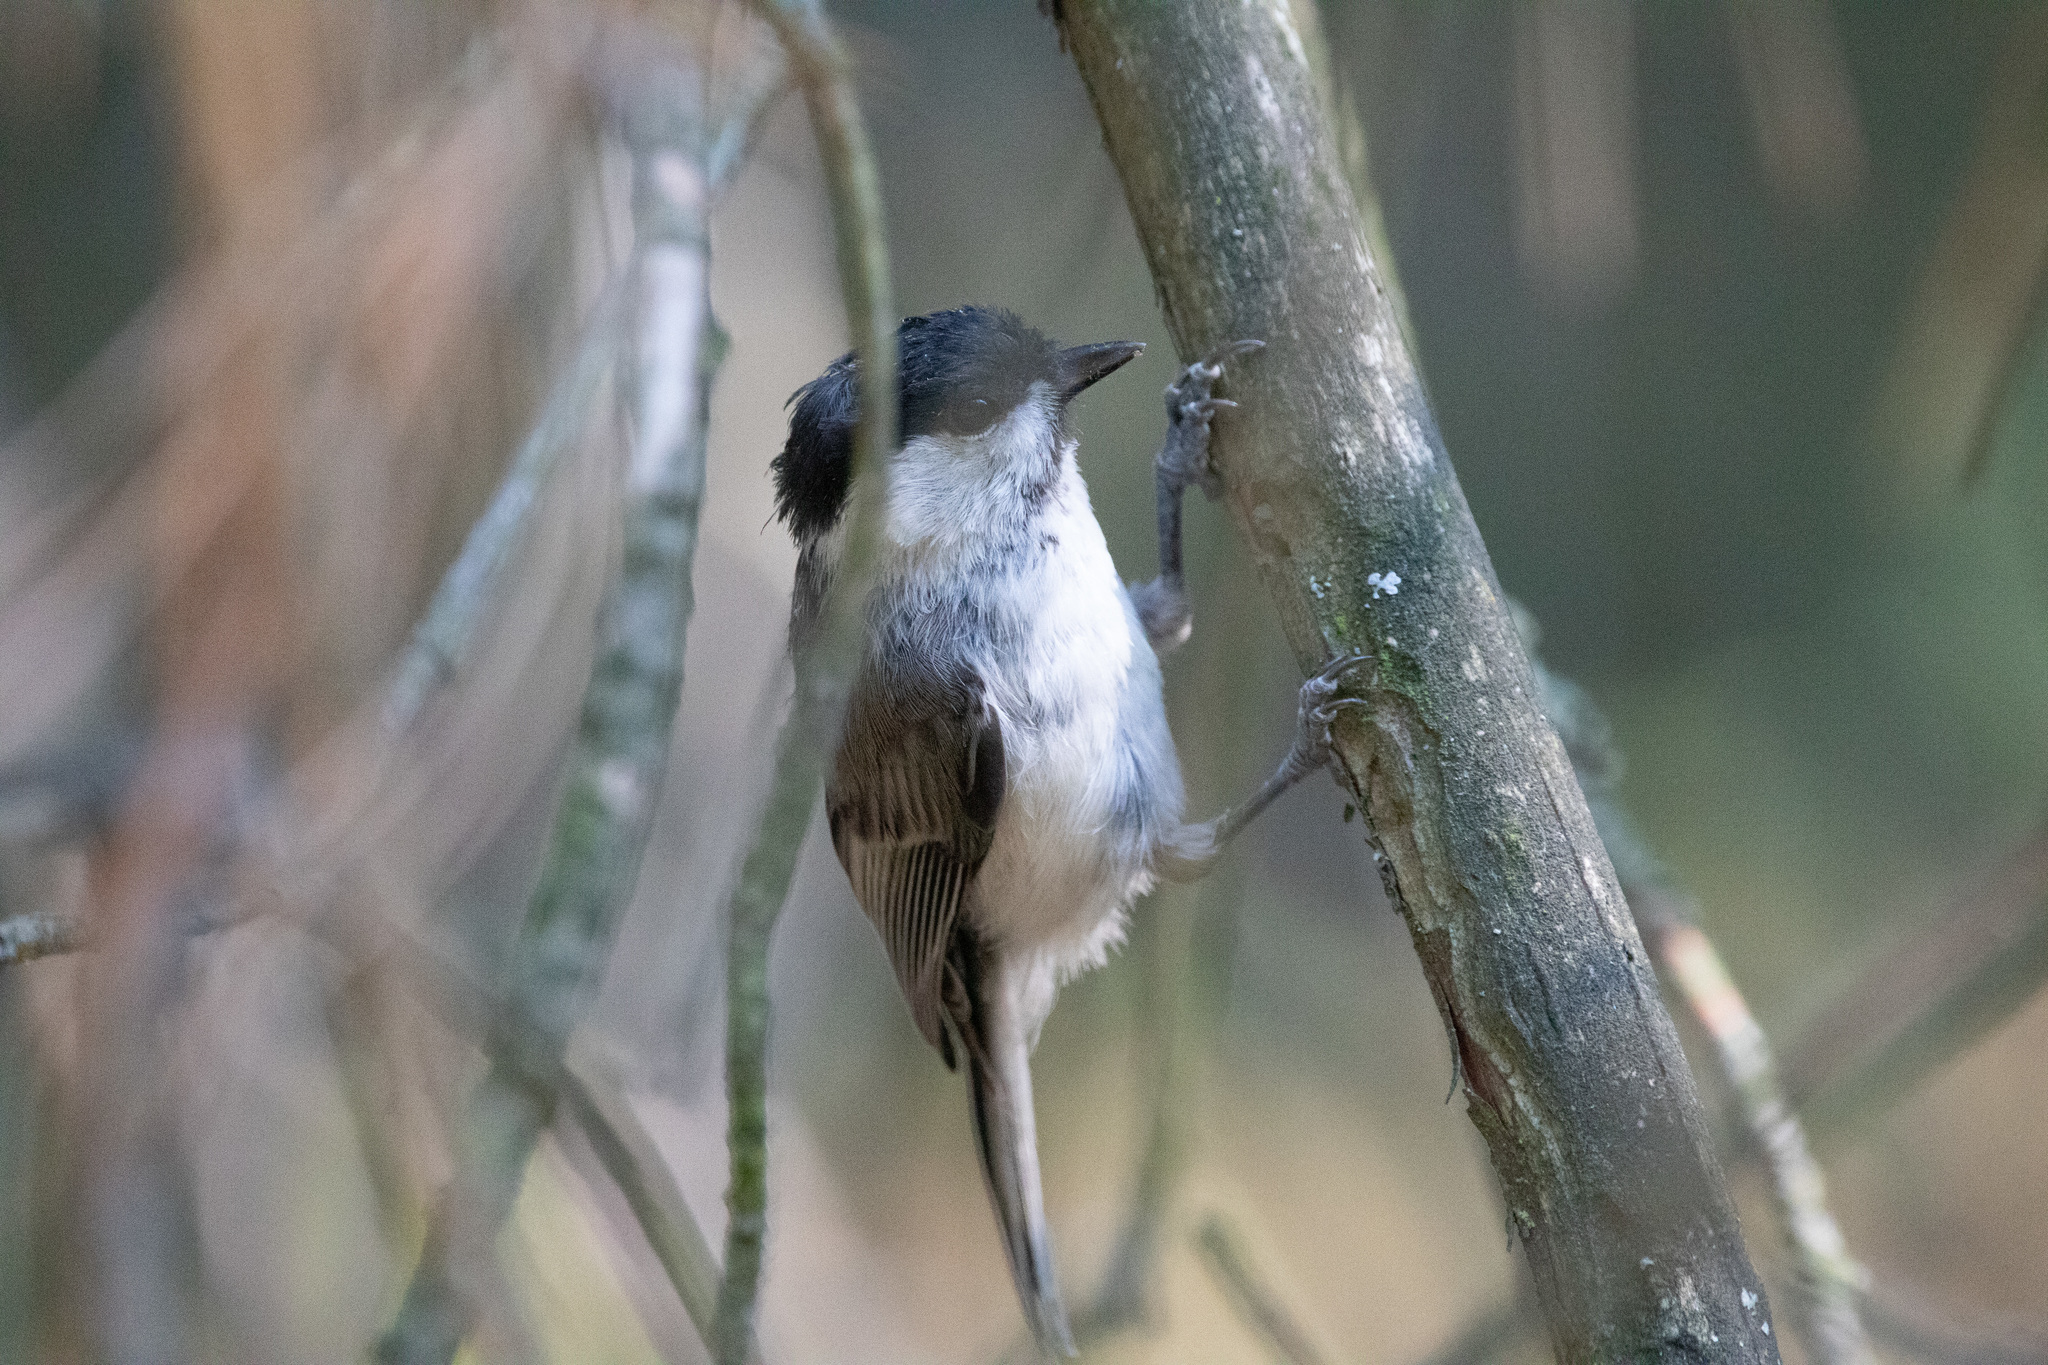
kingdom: Animalia
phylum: Chordata
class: Aves
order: Passeriformes
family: Paridae
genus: Poecile
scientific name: Poecile montanus
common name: Willow tit
